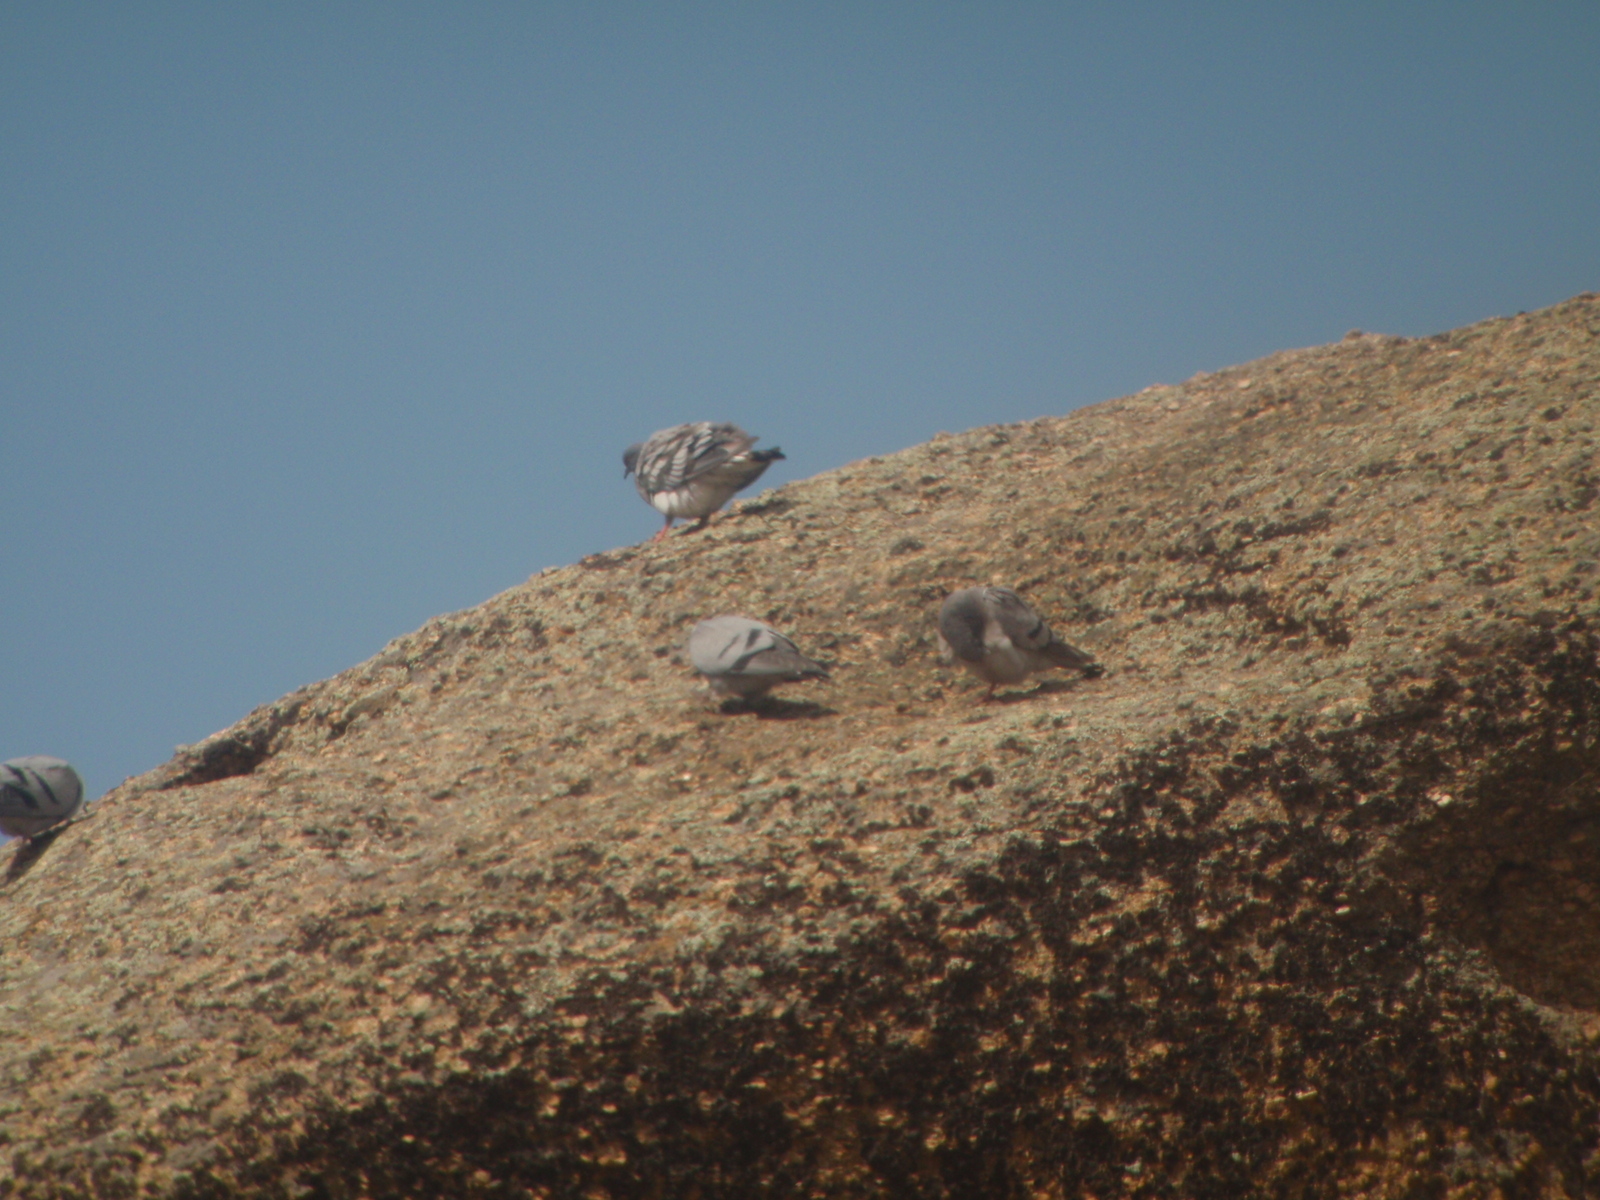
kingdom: Animalia
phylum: Chordata
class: Aves
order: Columbiformes
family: Columbidae
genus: Columba
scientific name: Columba livia
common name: Rock pigeon
